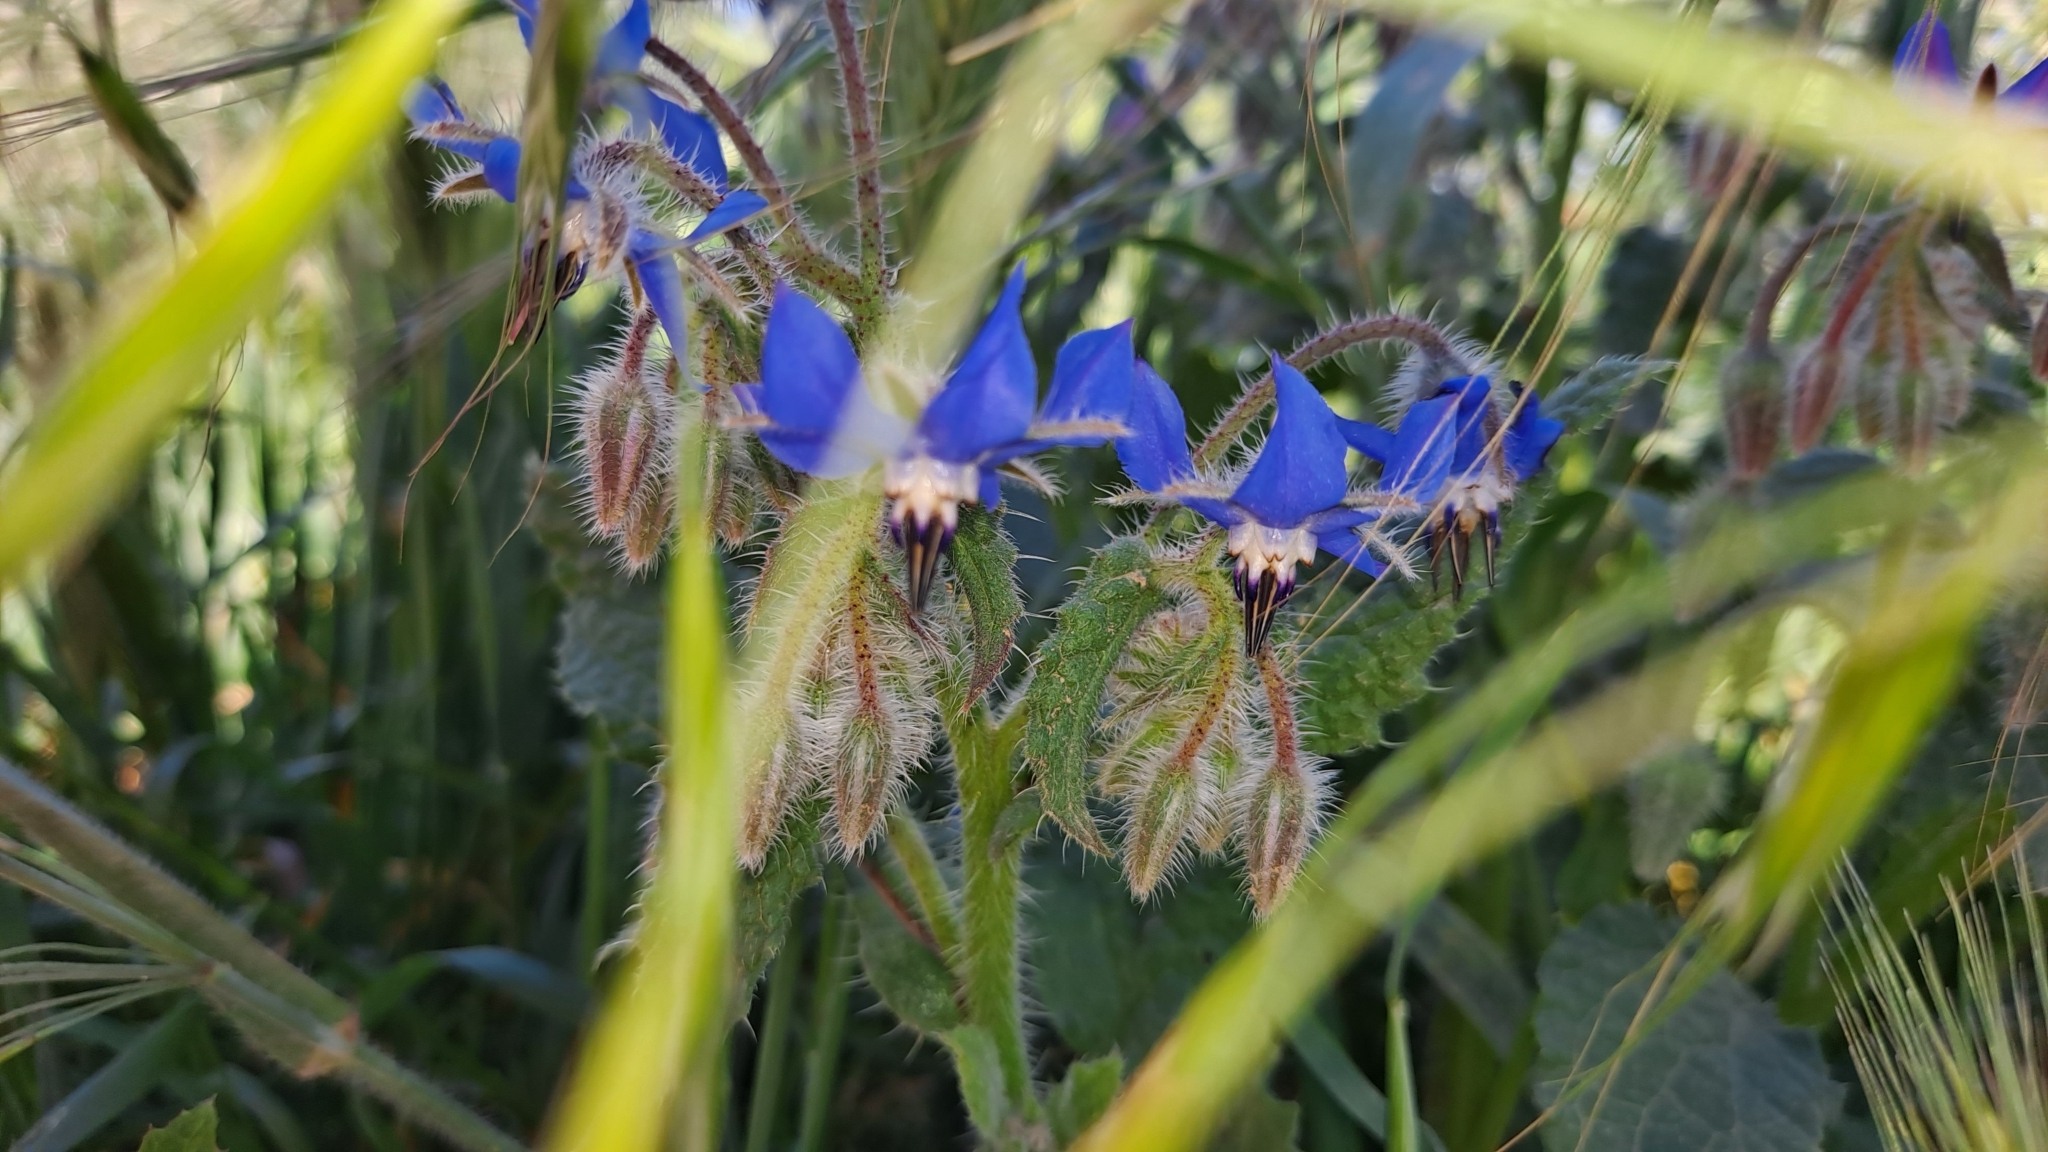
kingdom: Plantae
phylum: Tracheophyta
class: Magnoliopsida
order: Boraginales
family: Boraginaceae
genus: Borago
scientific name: Borago officinalis
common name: Borage
